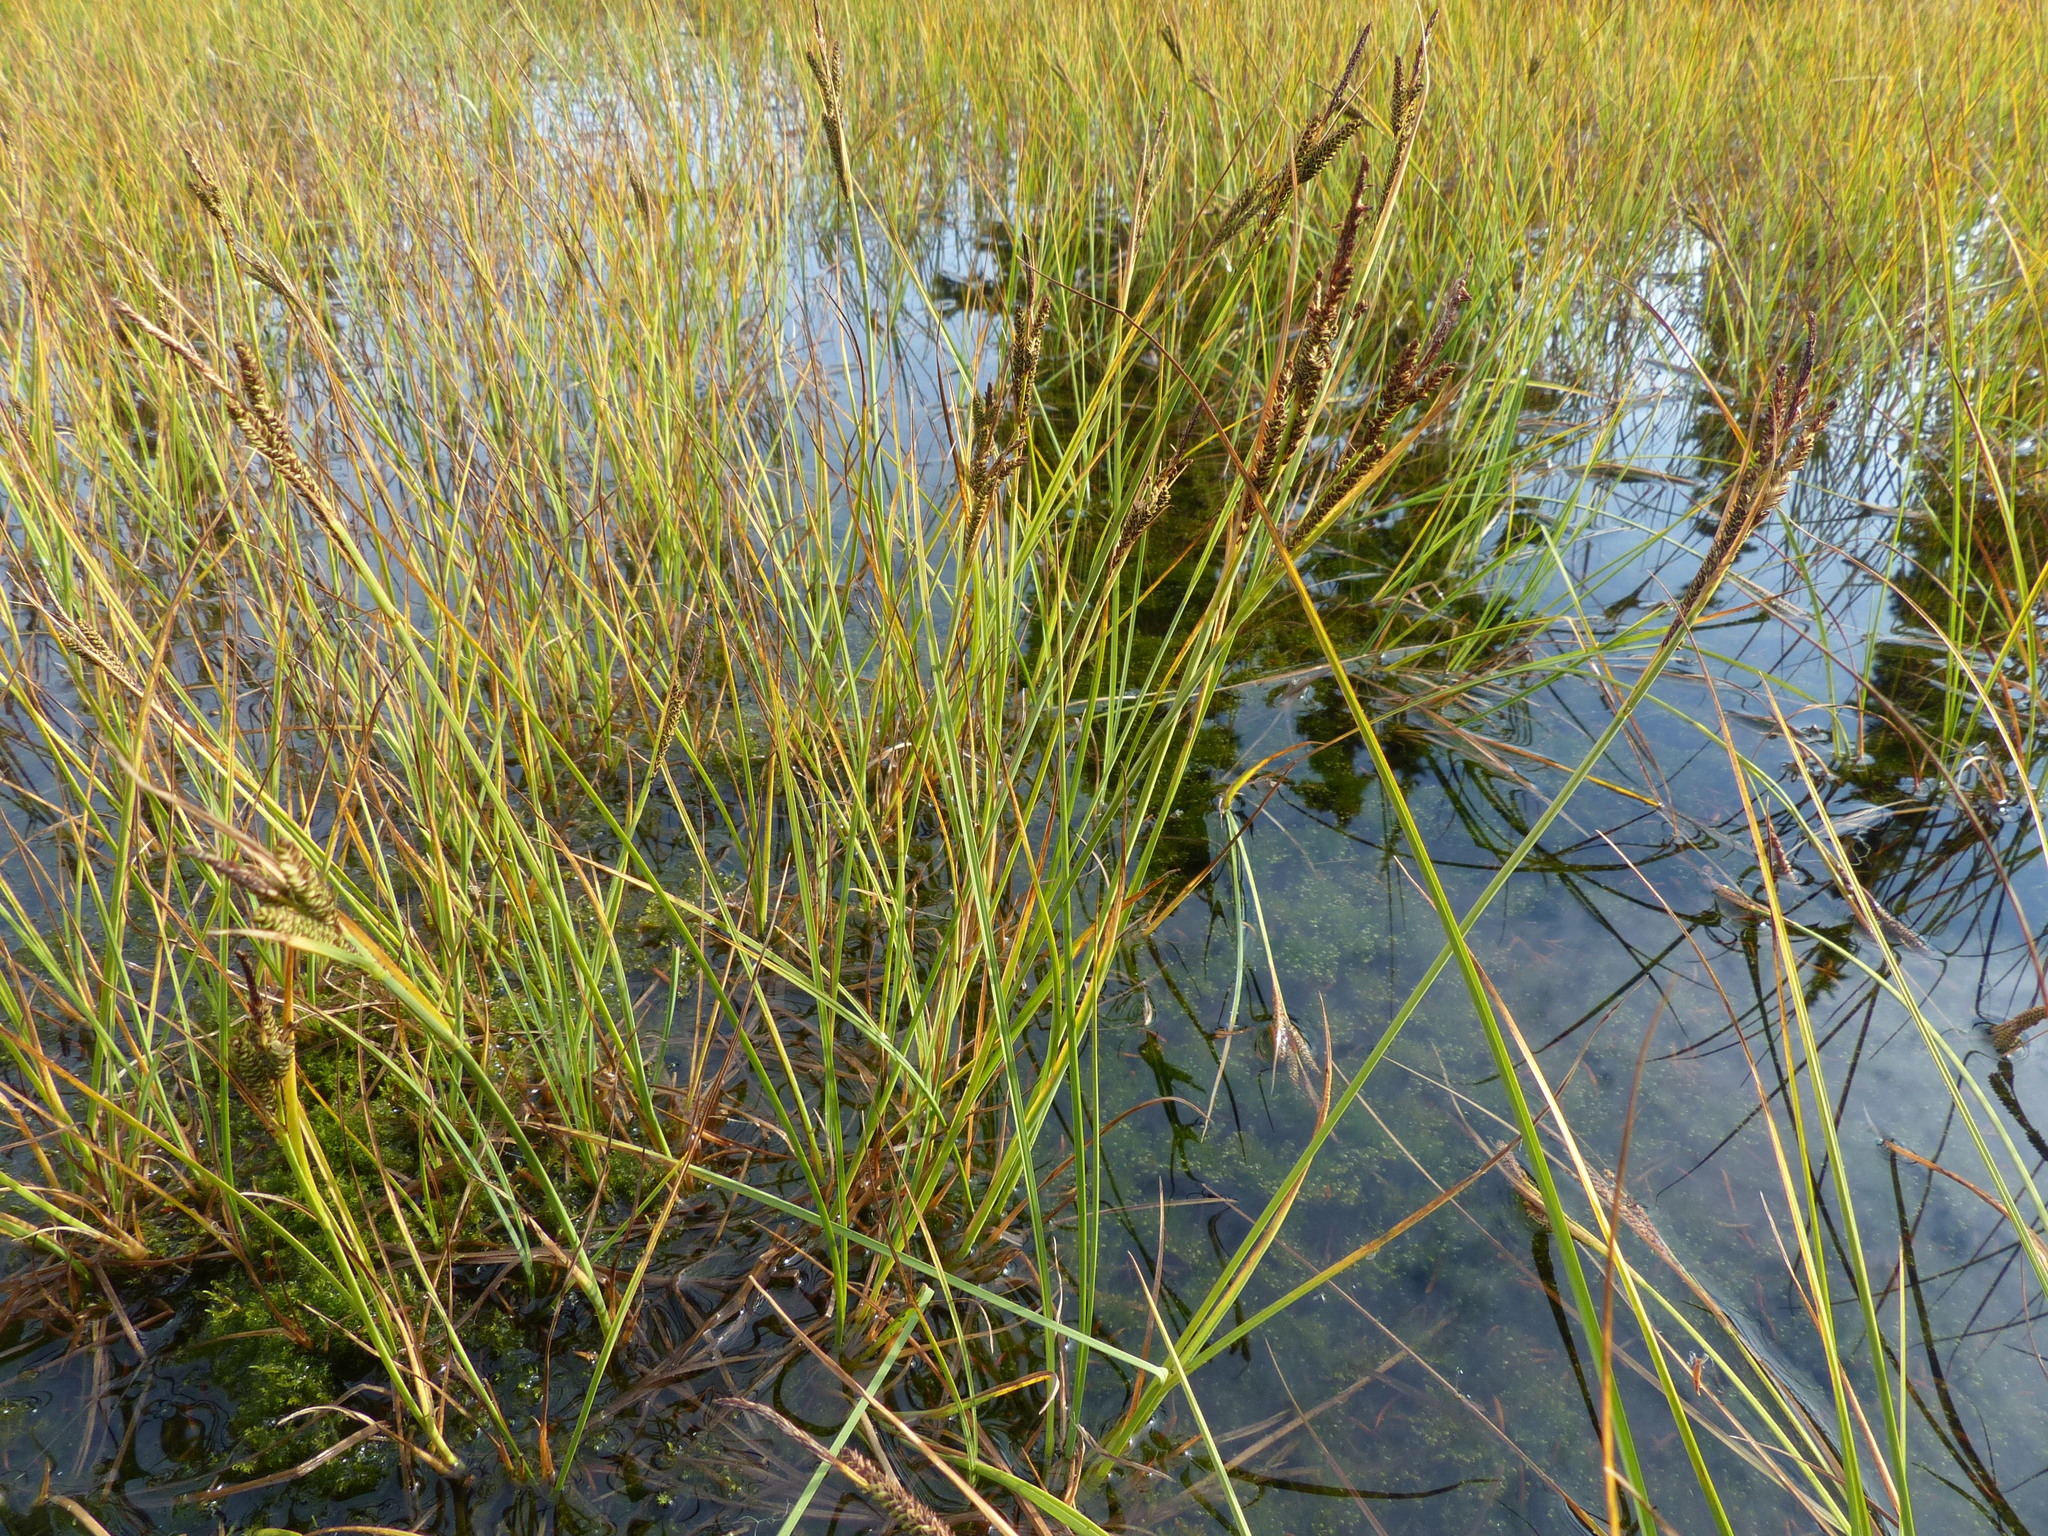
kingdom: Plantae
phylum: Tracheophyta
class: Liliopsida
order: Poales
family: Cyperaceae
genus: Carex
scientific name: Carex aquatilis
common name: Water sedge
